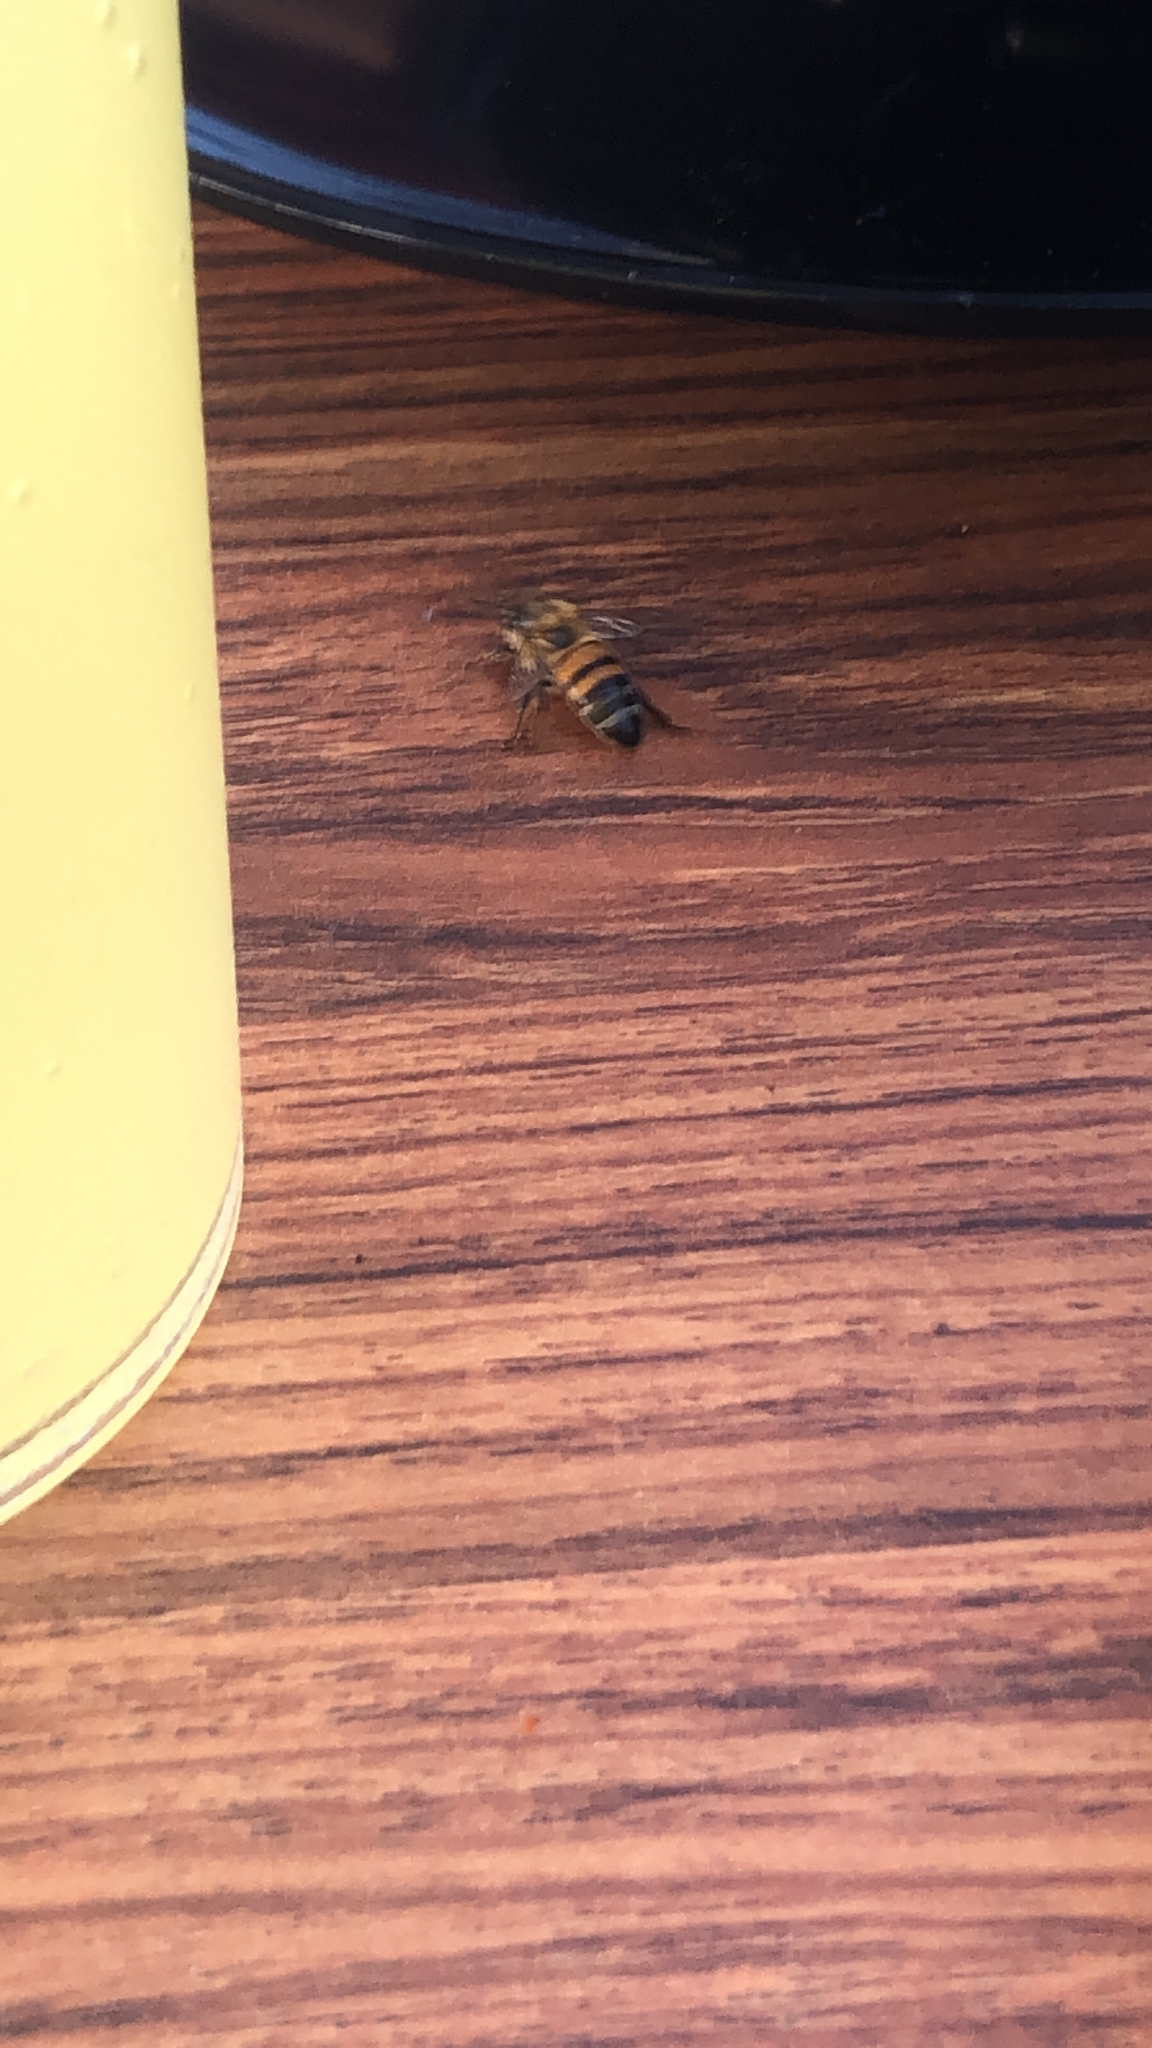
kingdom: Animalia
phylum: Arthropoda
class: Insecta
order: Hymenoptera
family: Apidae
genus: Apis
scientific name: Apis mellifera
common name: Honey bee
